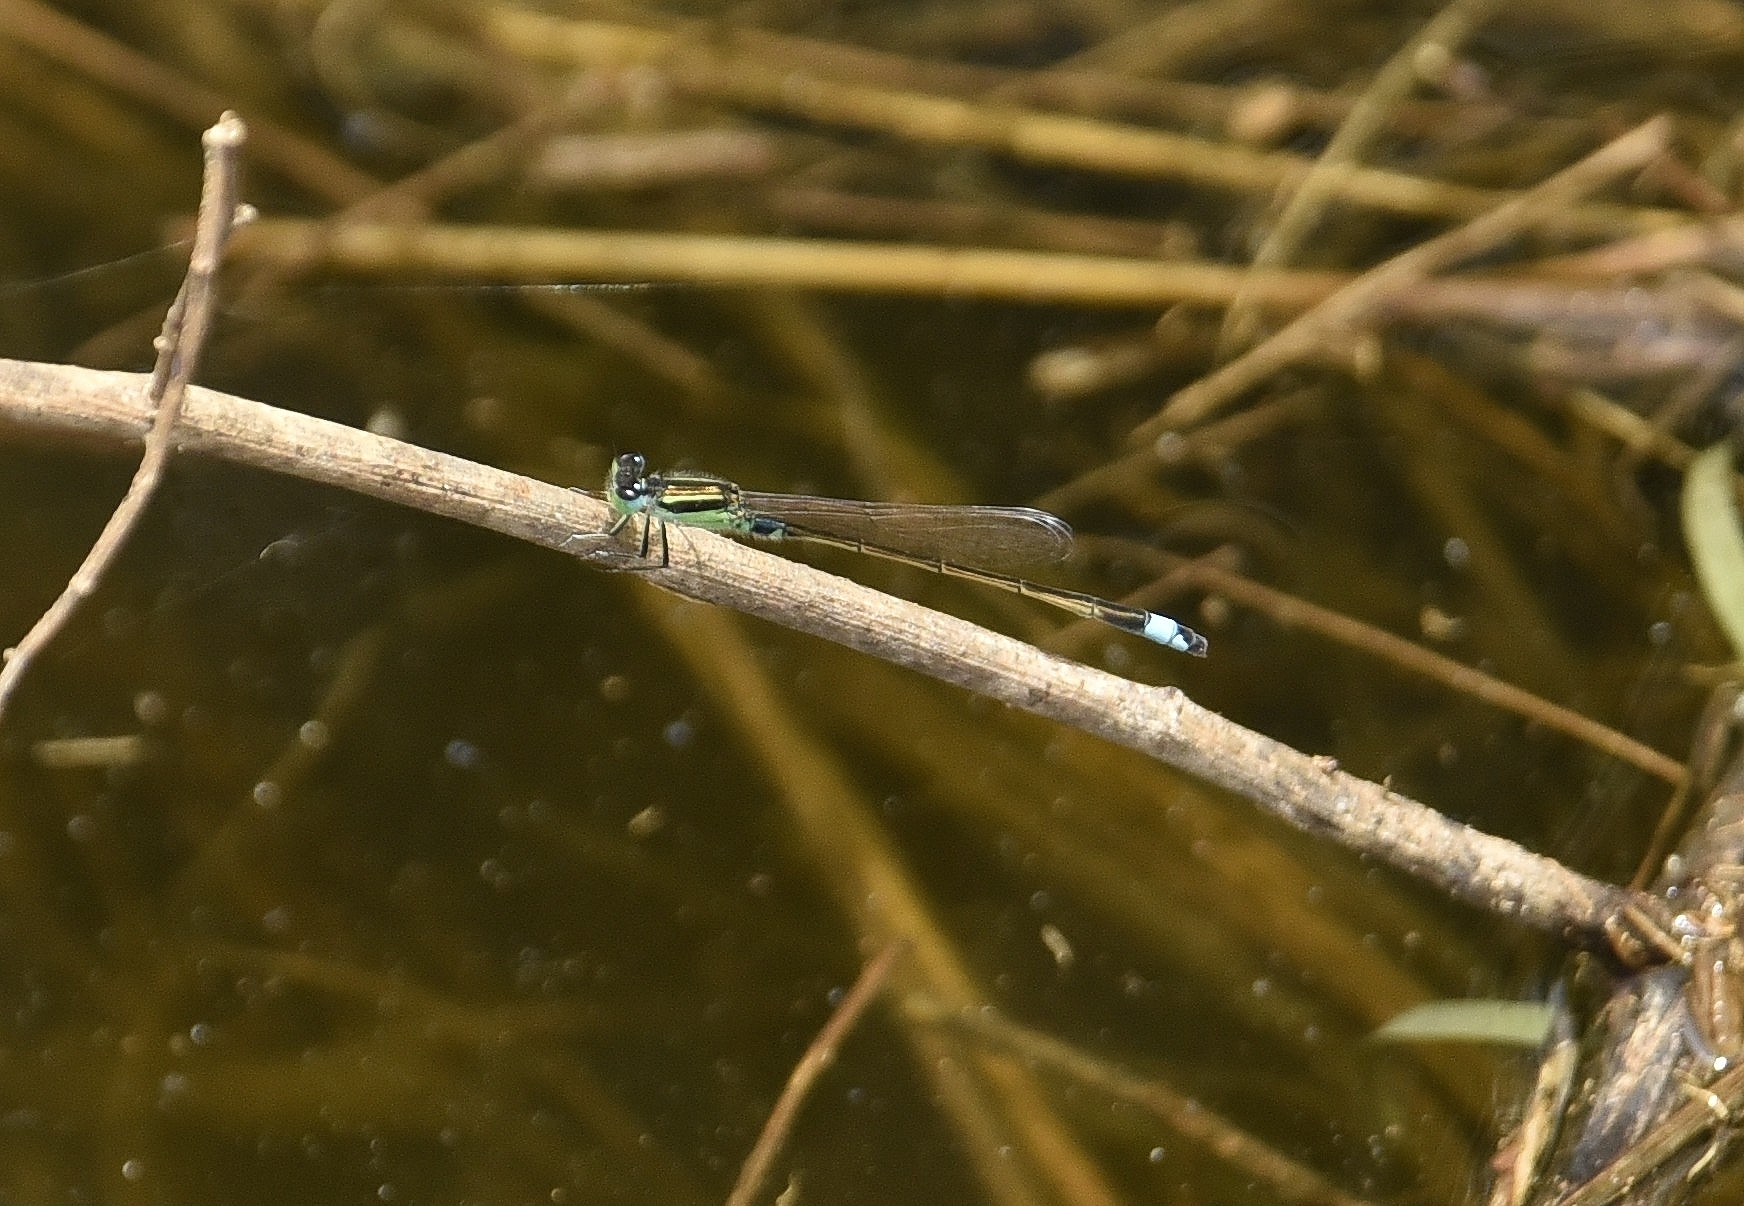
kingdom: Animalia
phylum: Arthropoda
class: Insecta
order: Odonata
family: Coenagrionidae
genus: Ischnura
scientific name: Ischnura senegalensis
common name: Tropical bluetail
